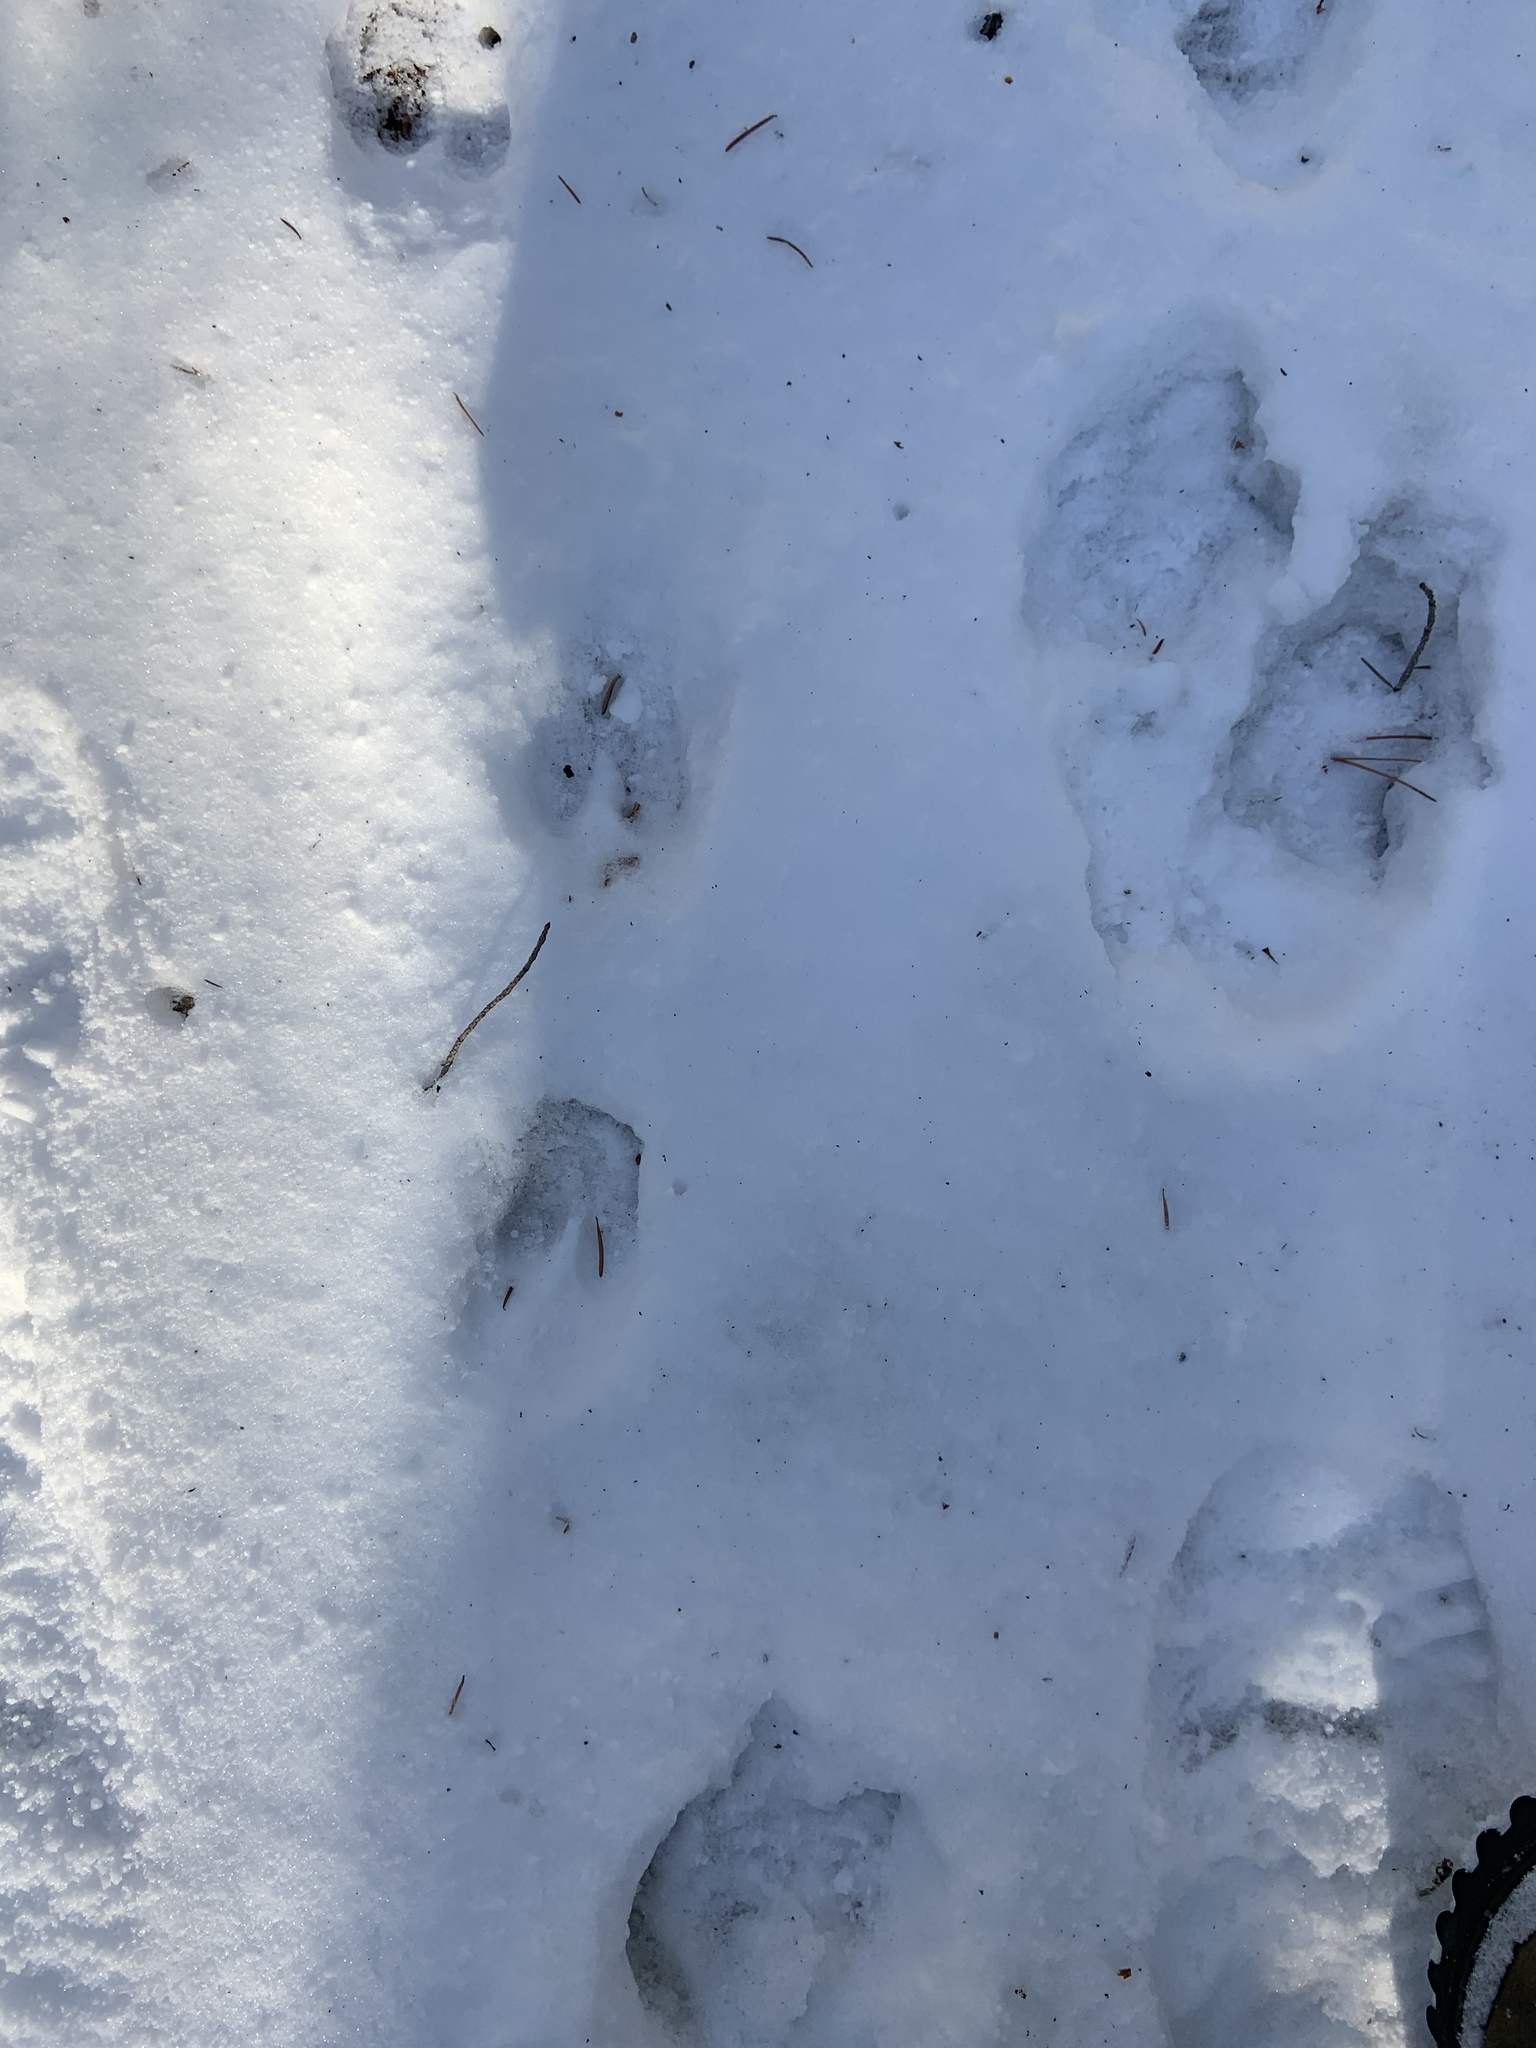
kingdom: Animalia
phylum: Chordata
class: Mammalia
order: Artiodactyla
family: Cervidae
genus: Odocoileus
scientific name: Odocoileus hemionus
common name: Mule deer
